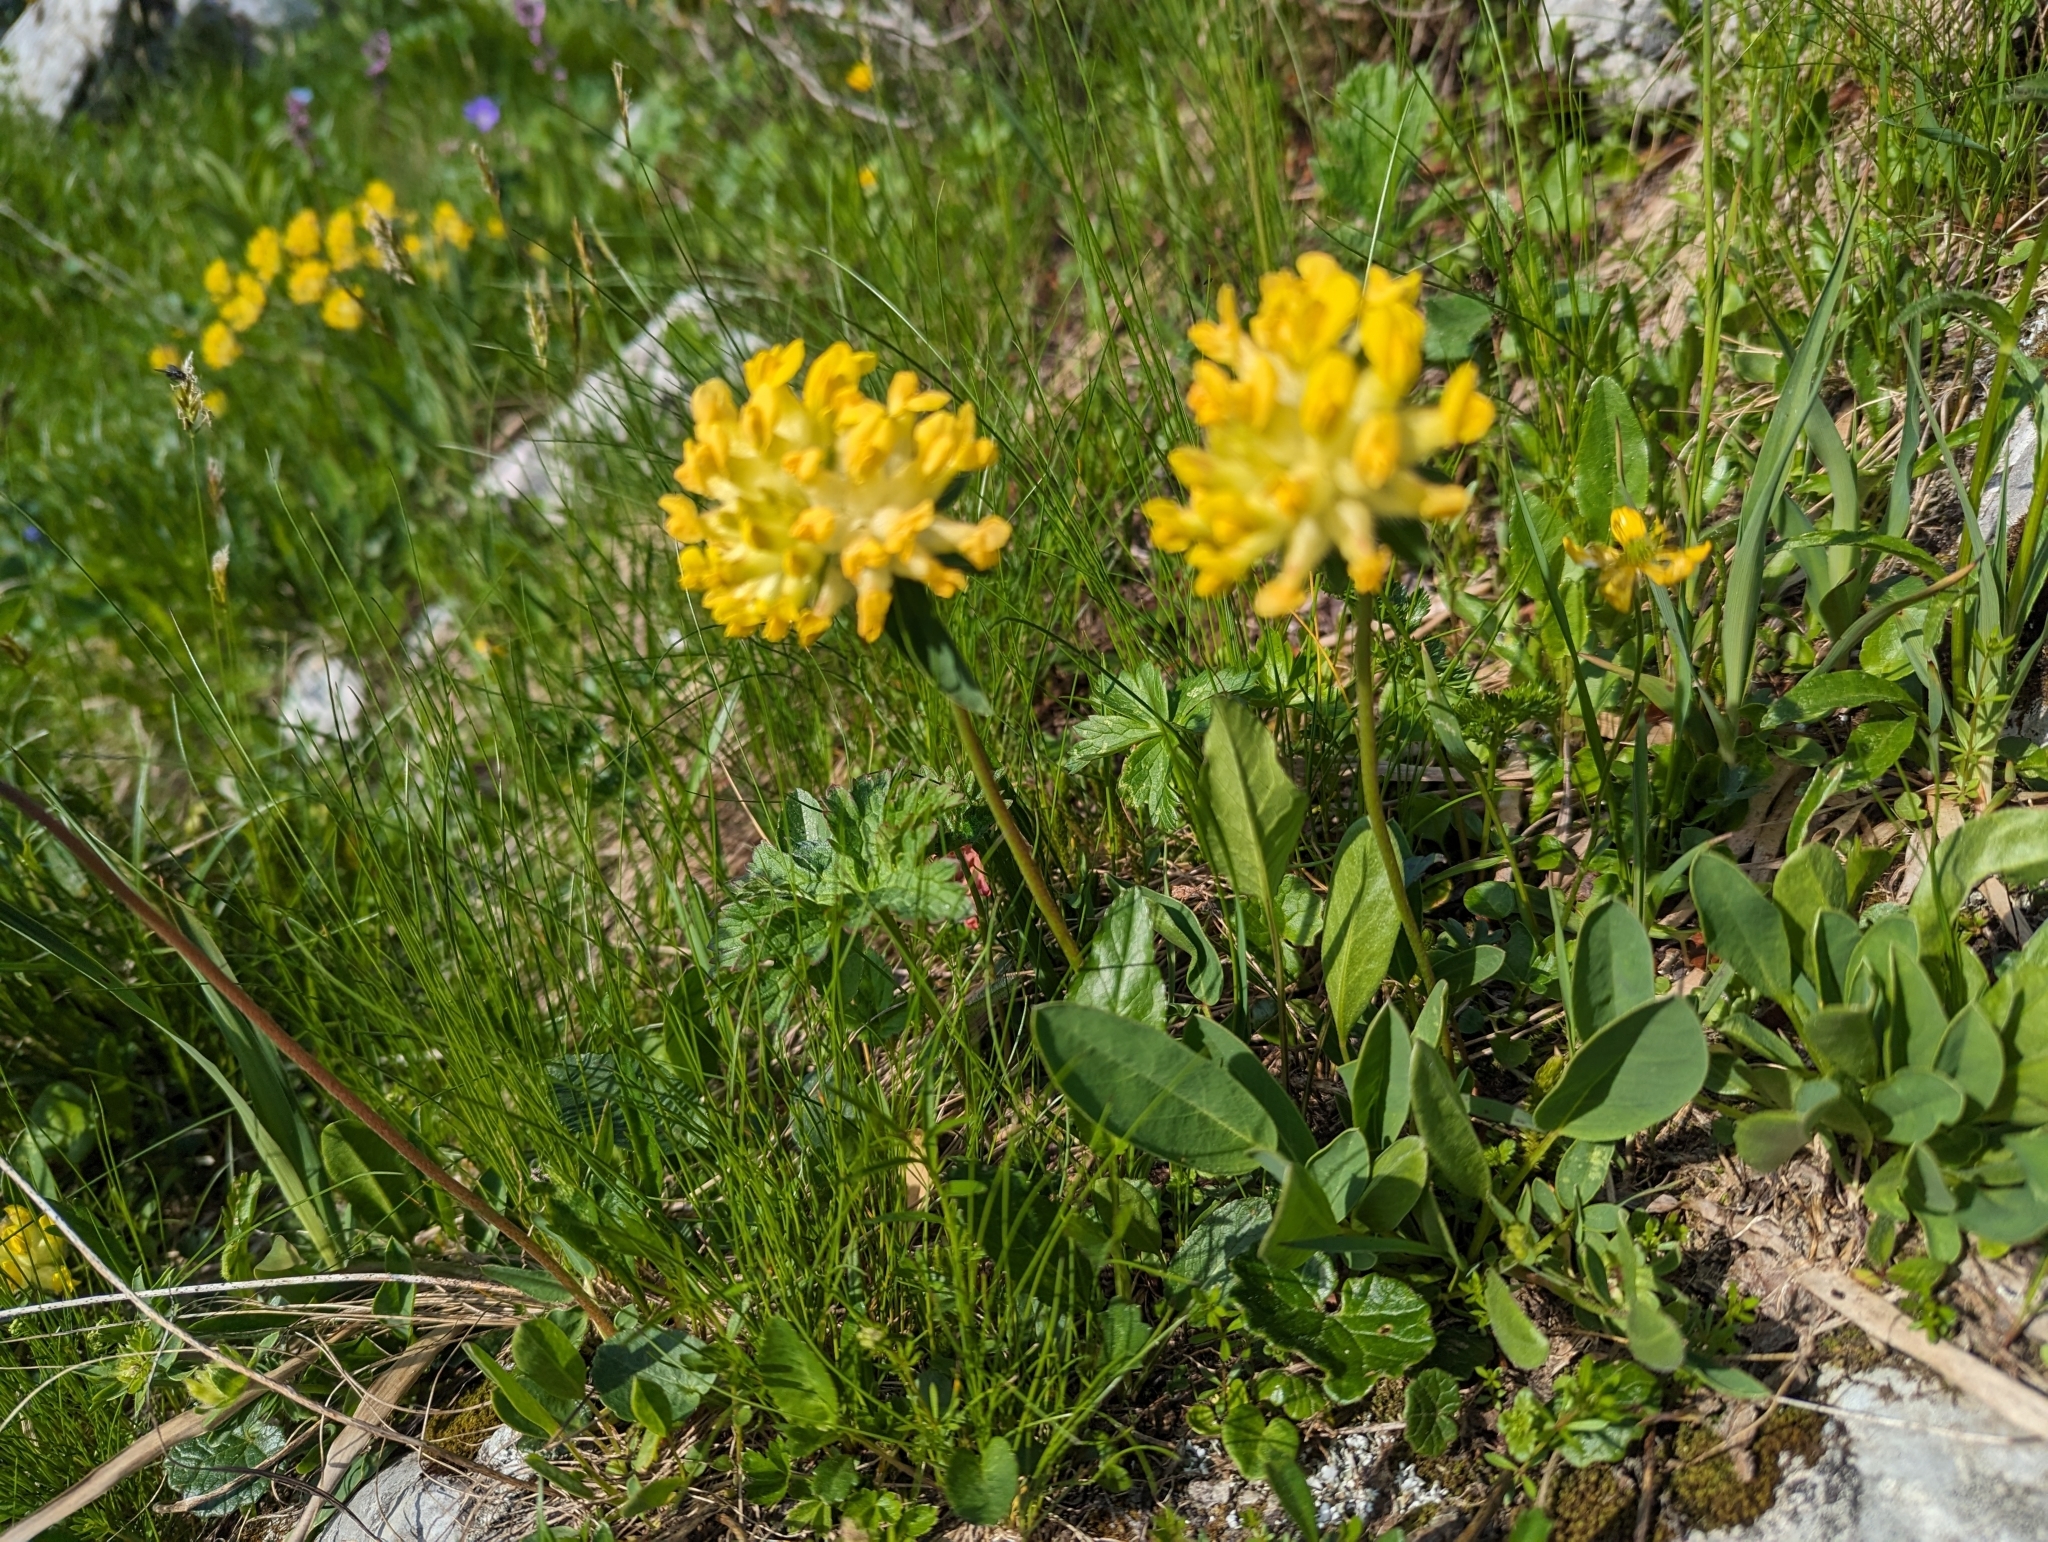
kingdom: Plantae
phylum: Tracheophyta
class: Magnoliopsida
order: Fabales
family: Fabaceae
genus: Anthyllis
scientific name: Anthyllis vulneraria
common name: Kidney vetch
